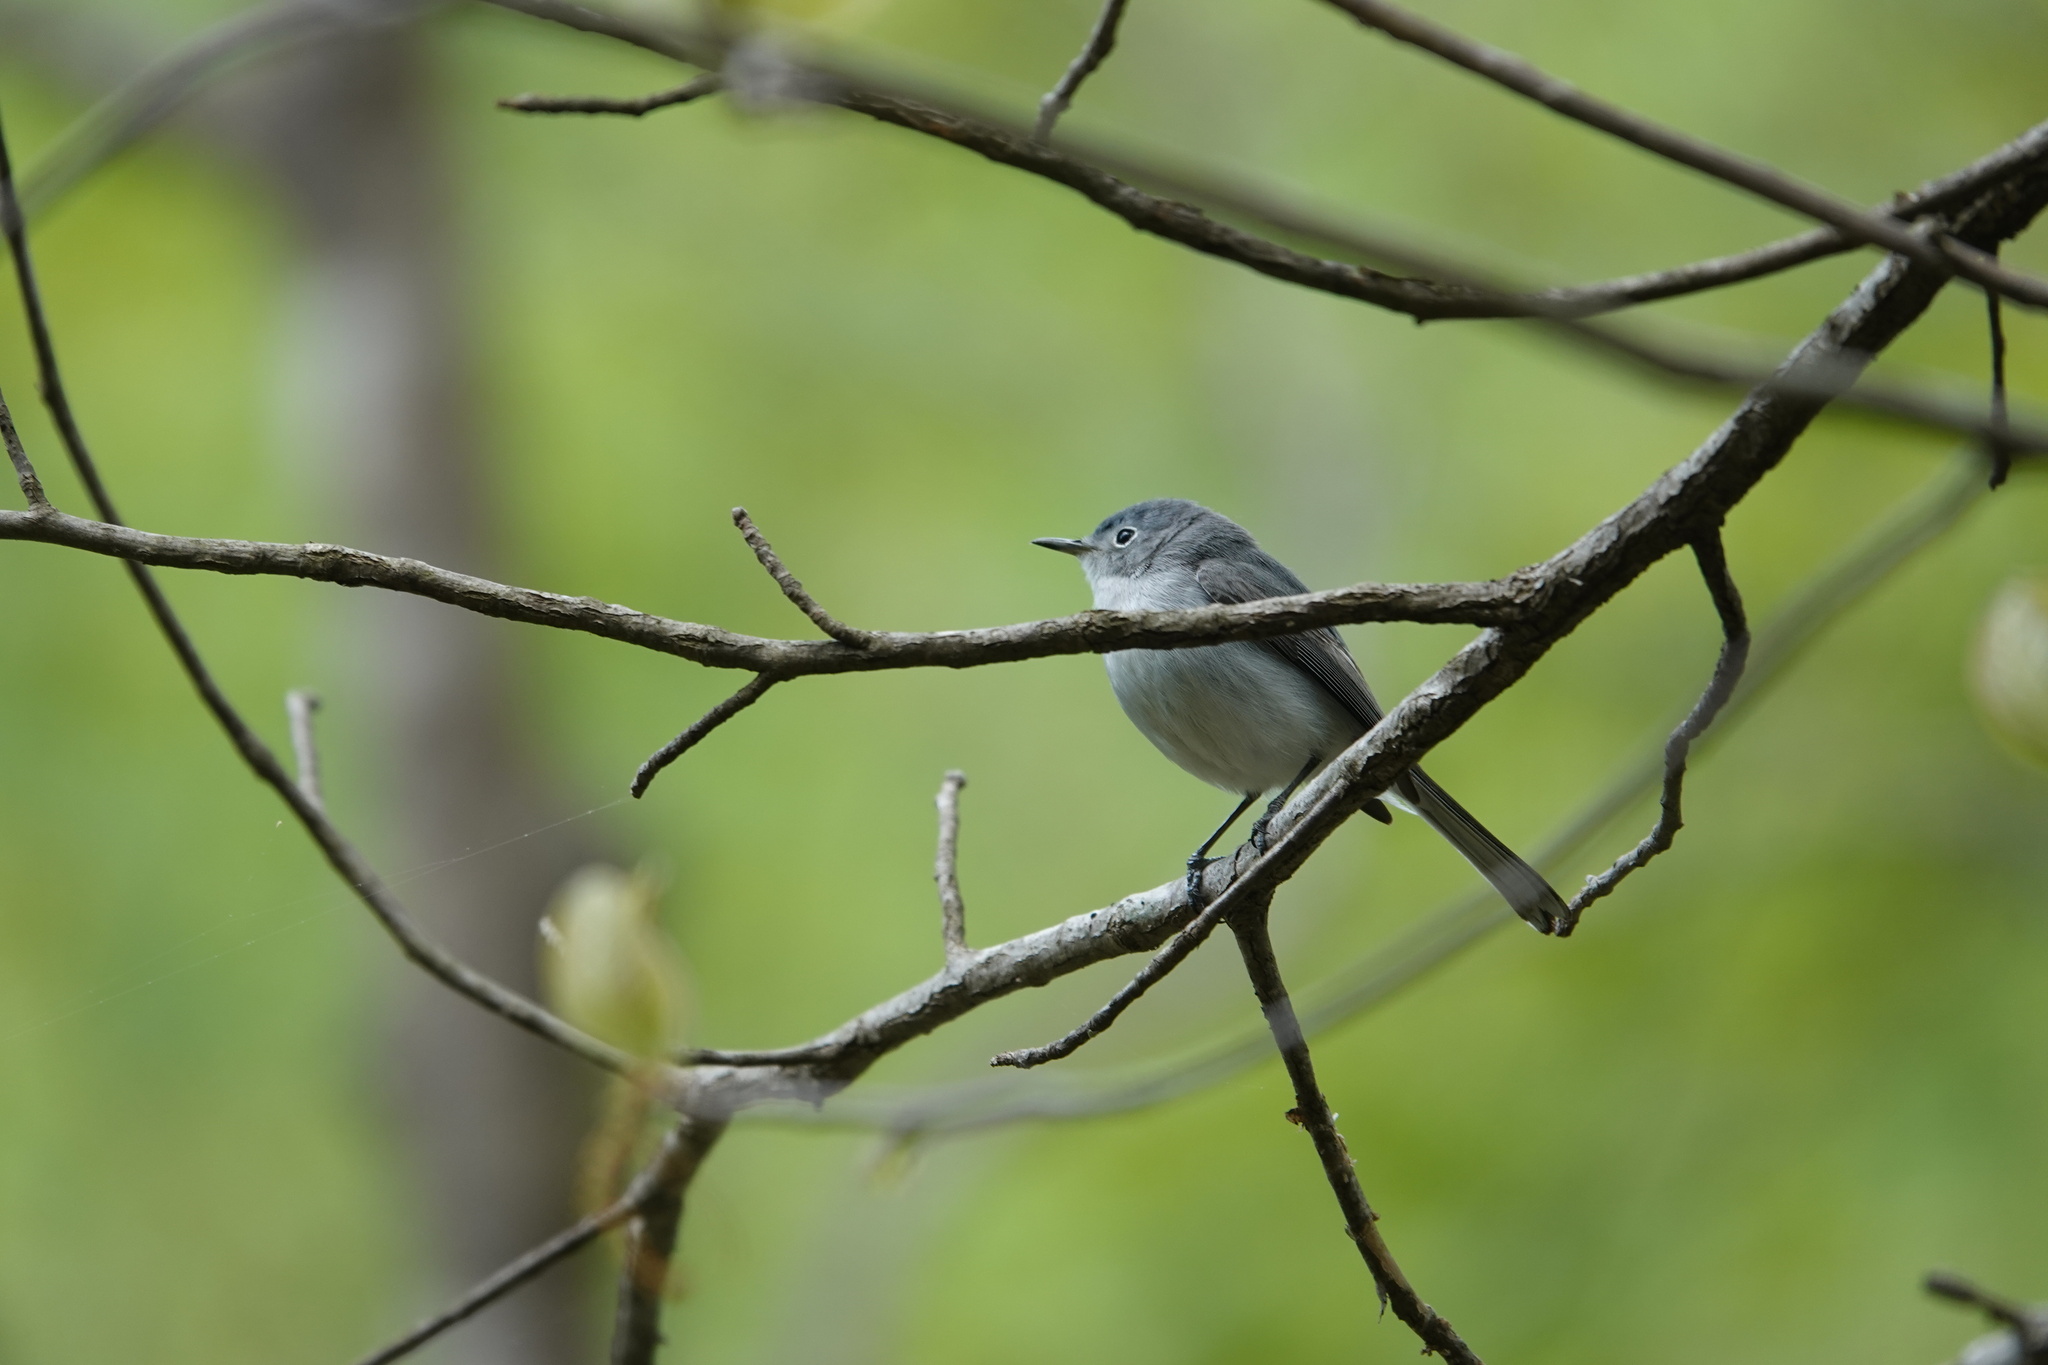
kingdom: Animalia
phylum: Chordata
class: Aves
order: Passeriformes
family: Polioptilidae
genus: Polioptila
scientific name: Polioptila caerulea
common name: Blue-gray gnatcatcher
